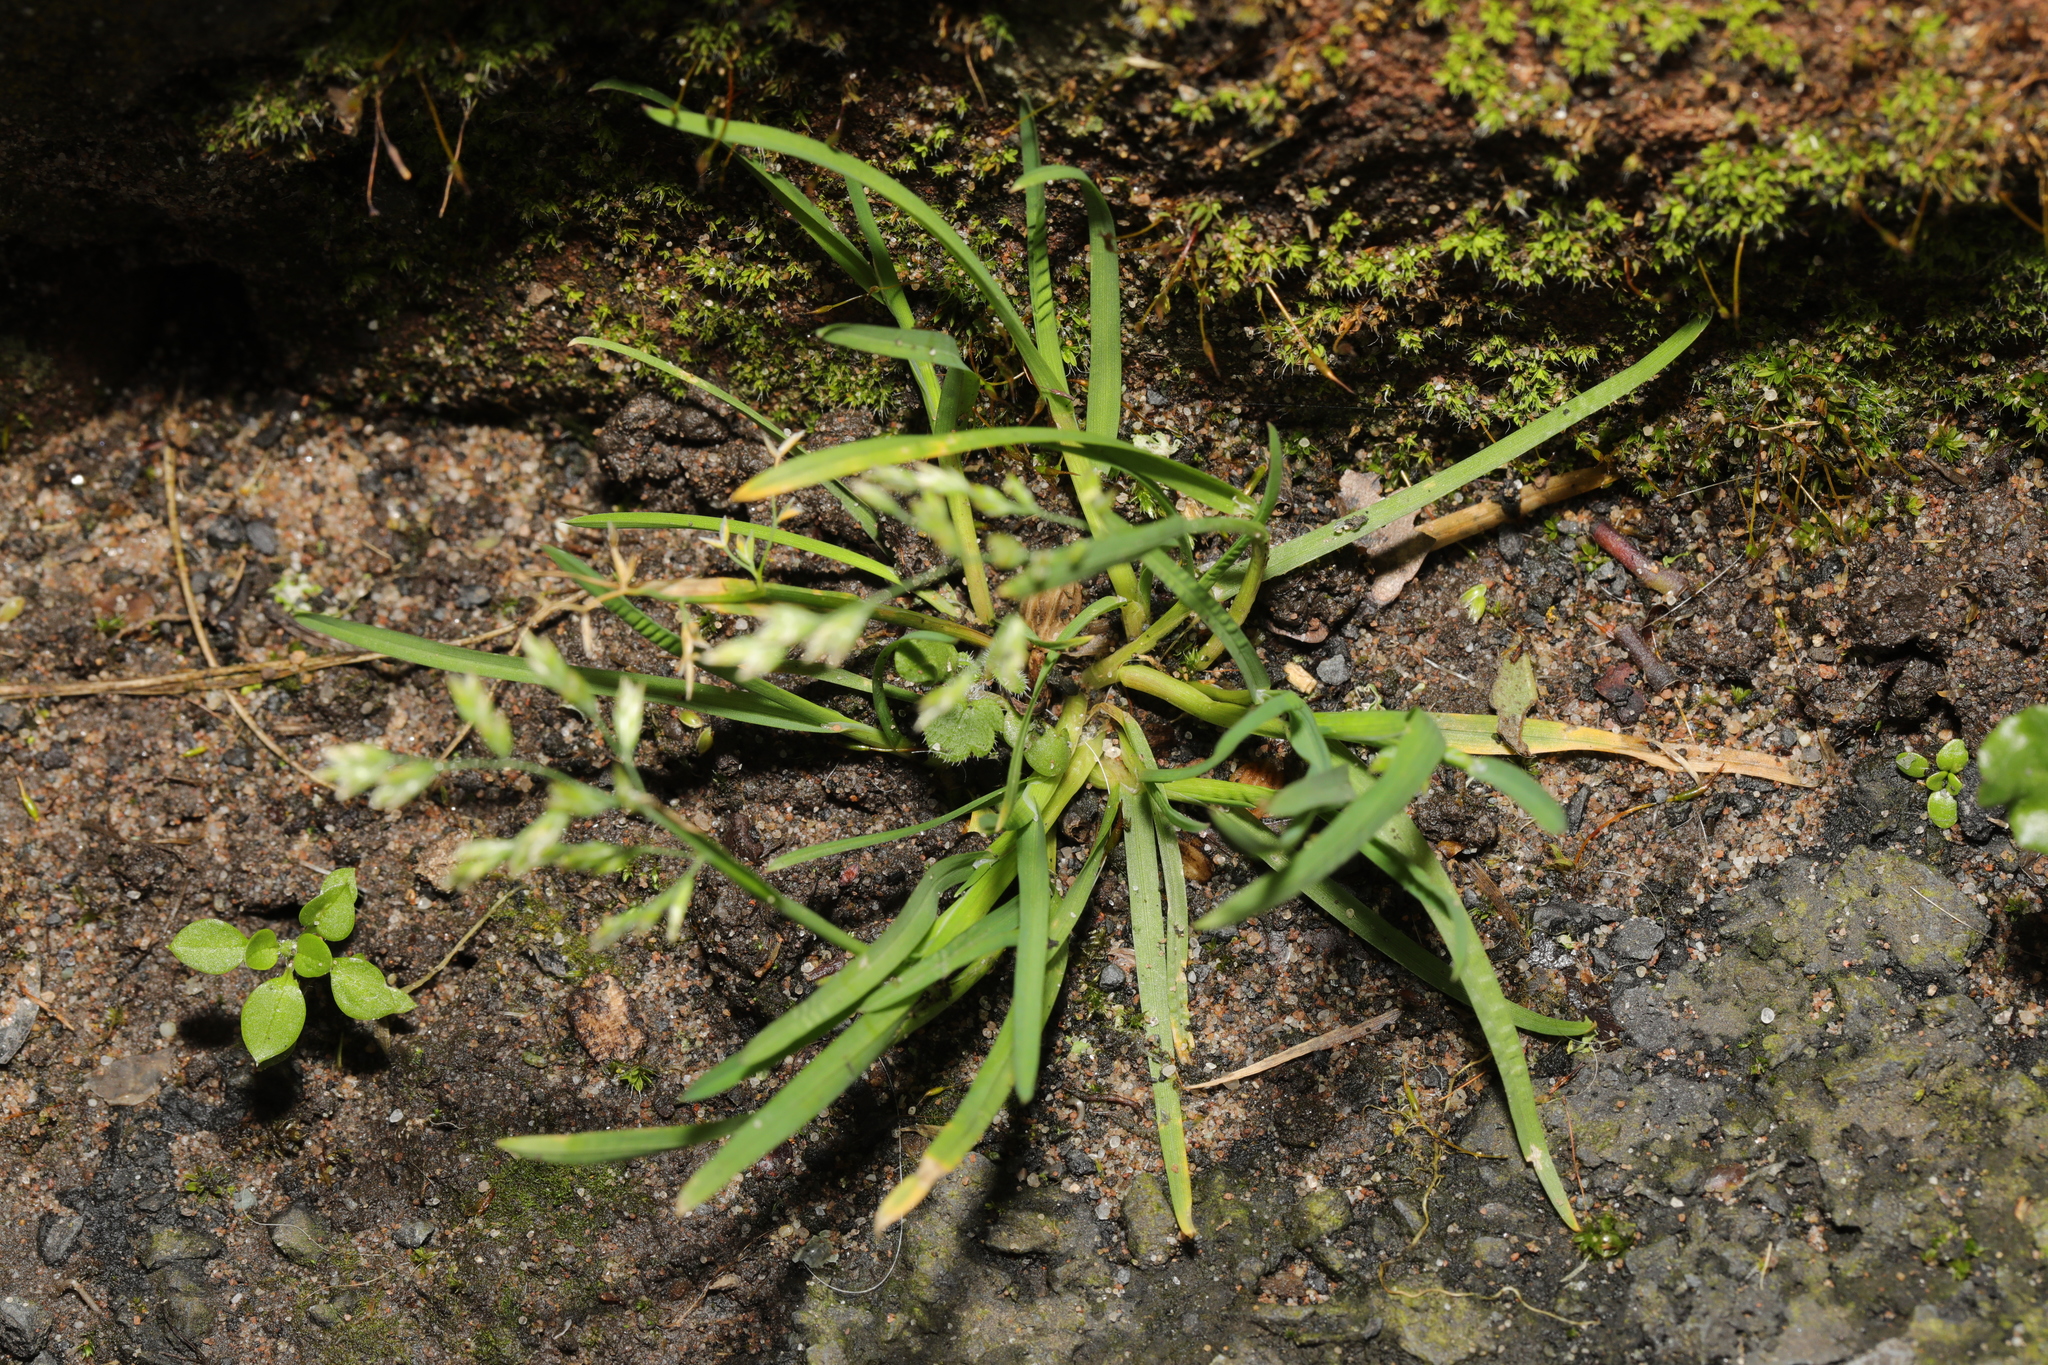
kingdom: Plantae
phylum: Tracheophyta
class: Liliopsida
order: Poales
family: Poaceae
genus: Poa
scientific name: Poa annua
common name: Annual bluegrass
